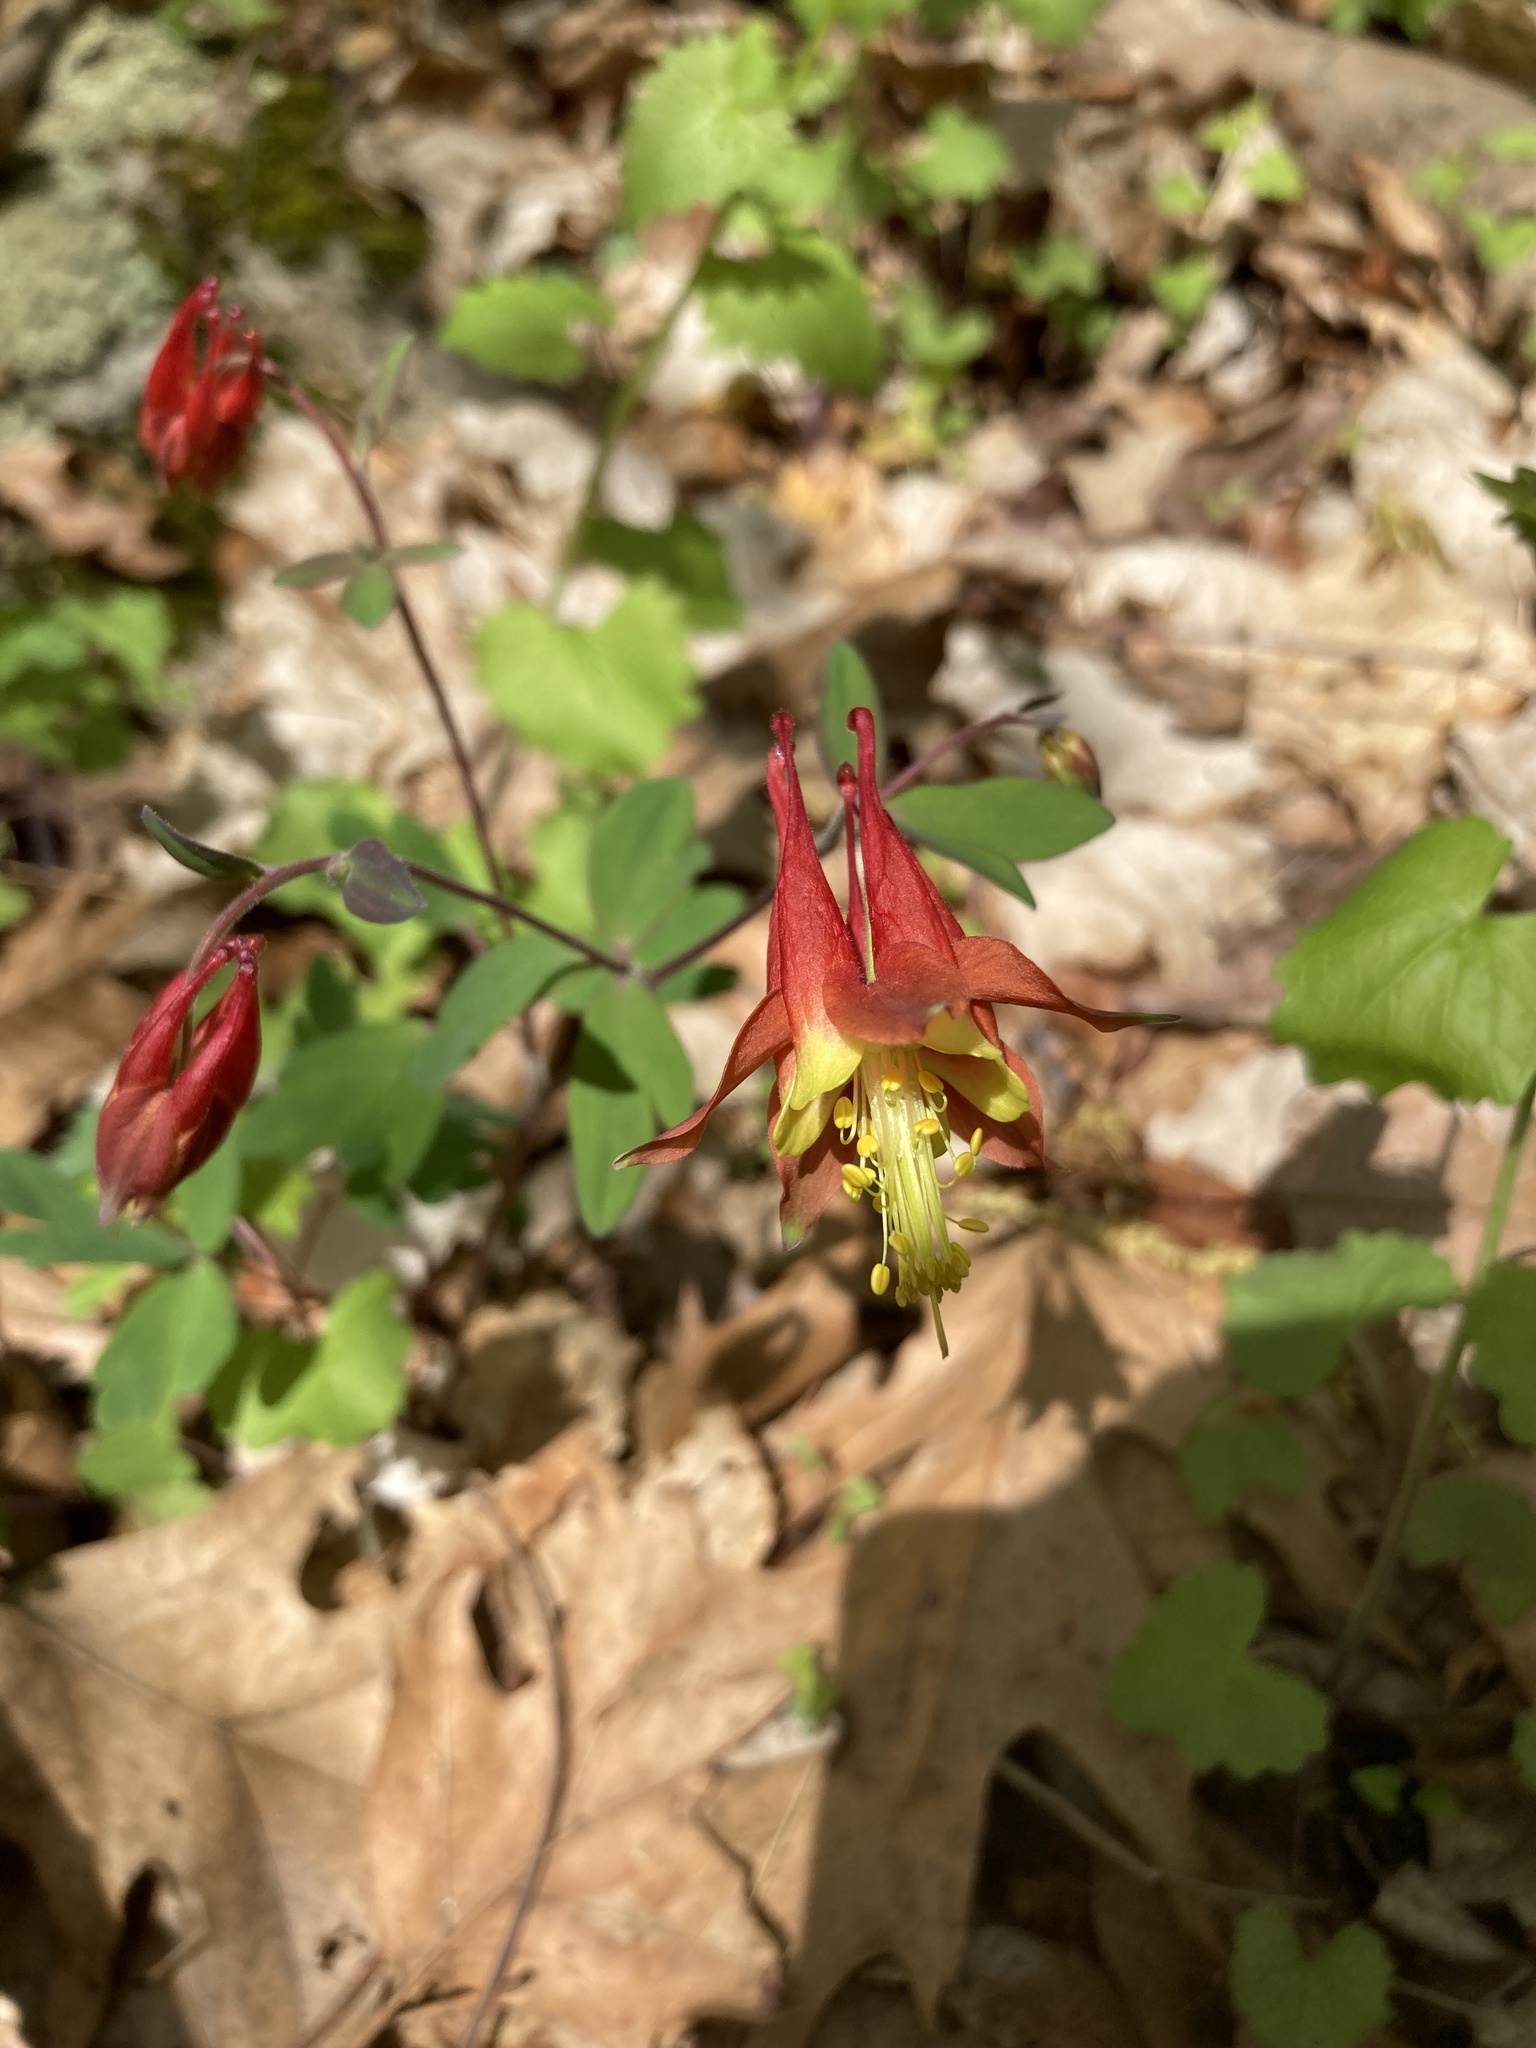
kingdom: Plantae
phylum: Tracheophyta
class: Magnoliopsida
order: Ranunculales
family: Ranunculaceae
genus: Aquilegia
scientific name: Aquilegia canadensis
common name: American columbine
